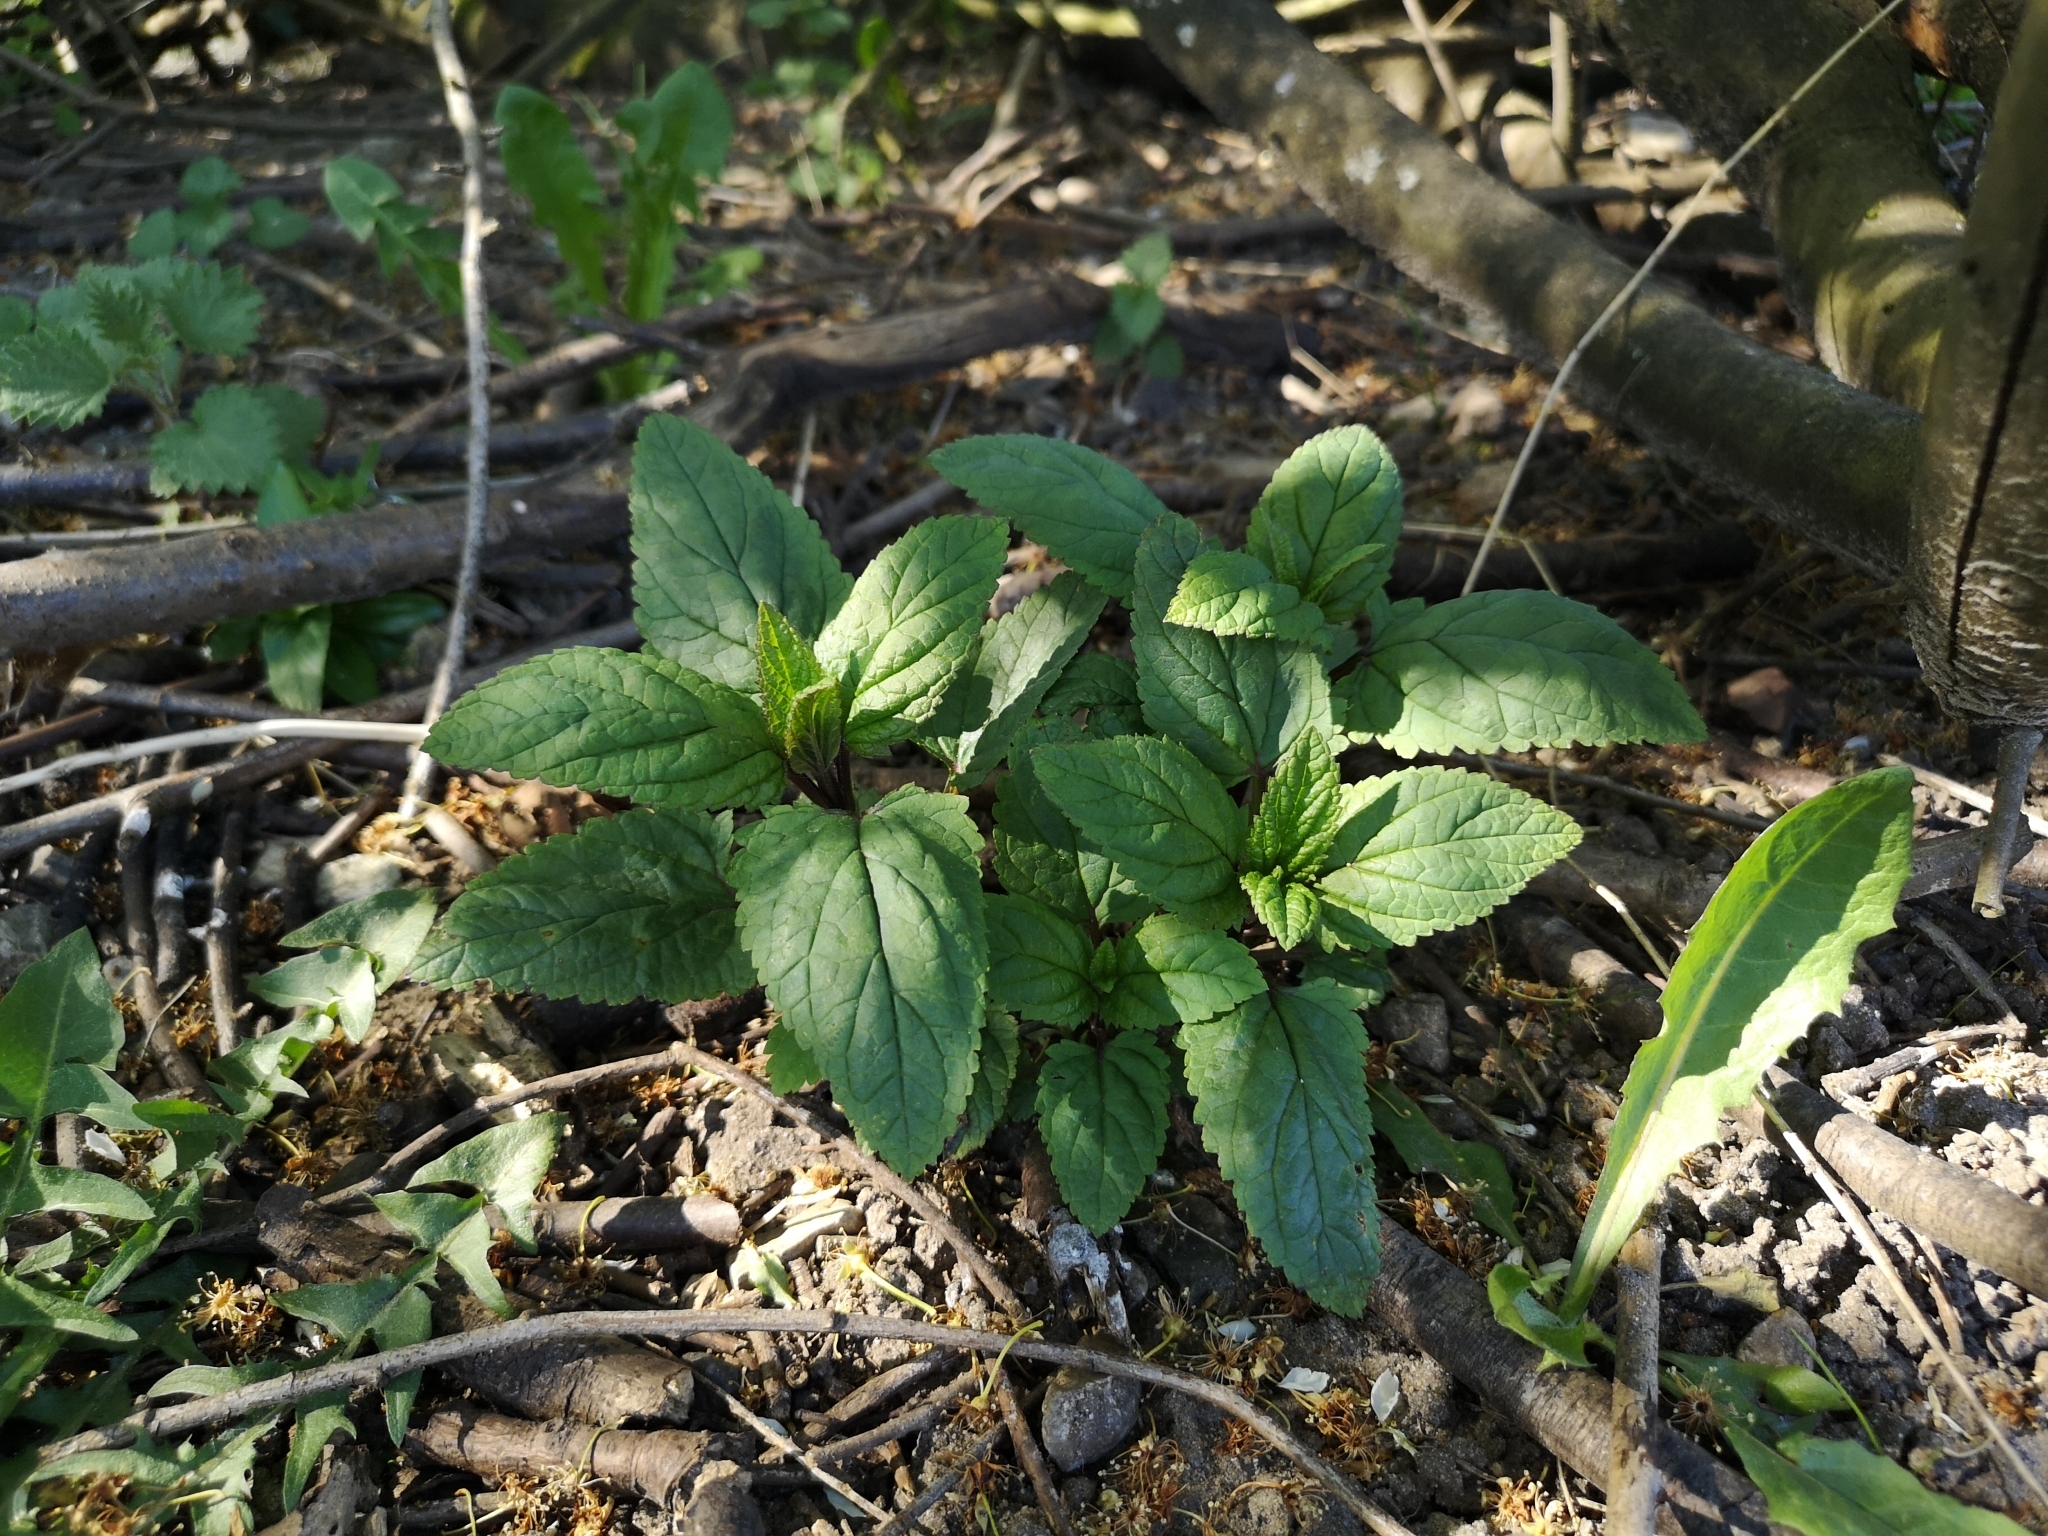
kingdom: Plantae
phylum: Tracheophyta
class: Magnoliopsida
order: Lamiales
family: Scrophulariaceae
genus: Scrophularia
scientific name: Scrophularia nodosa
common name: Common figwort
